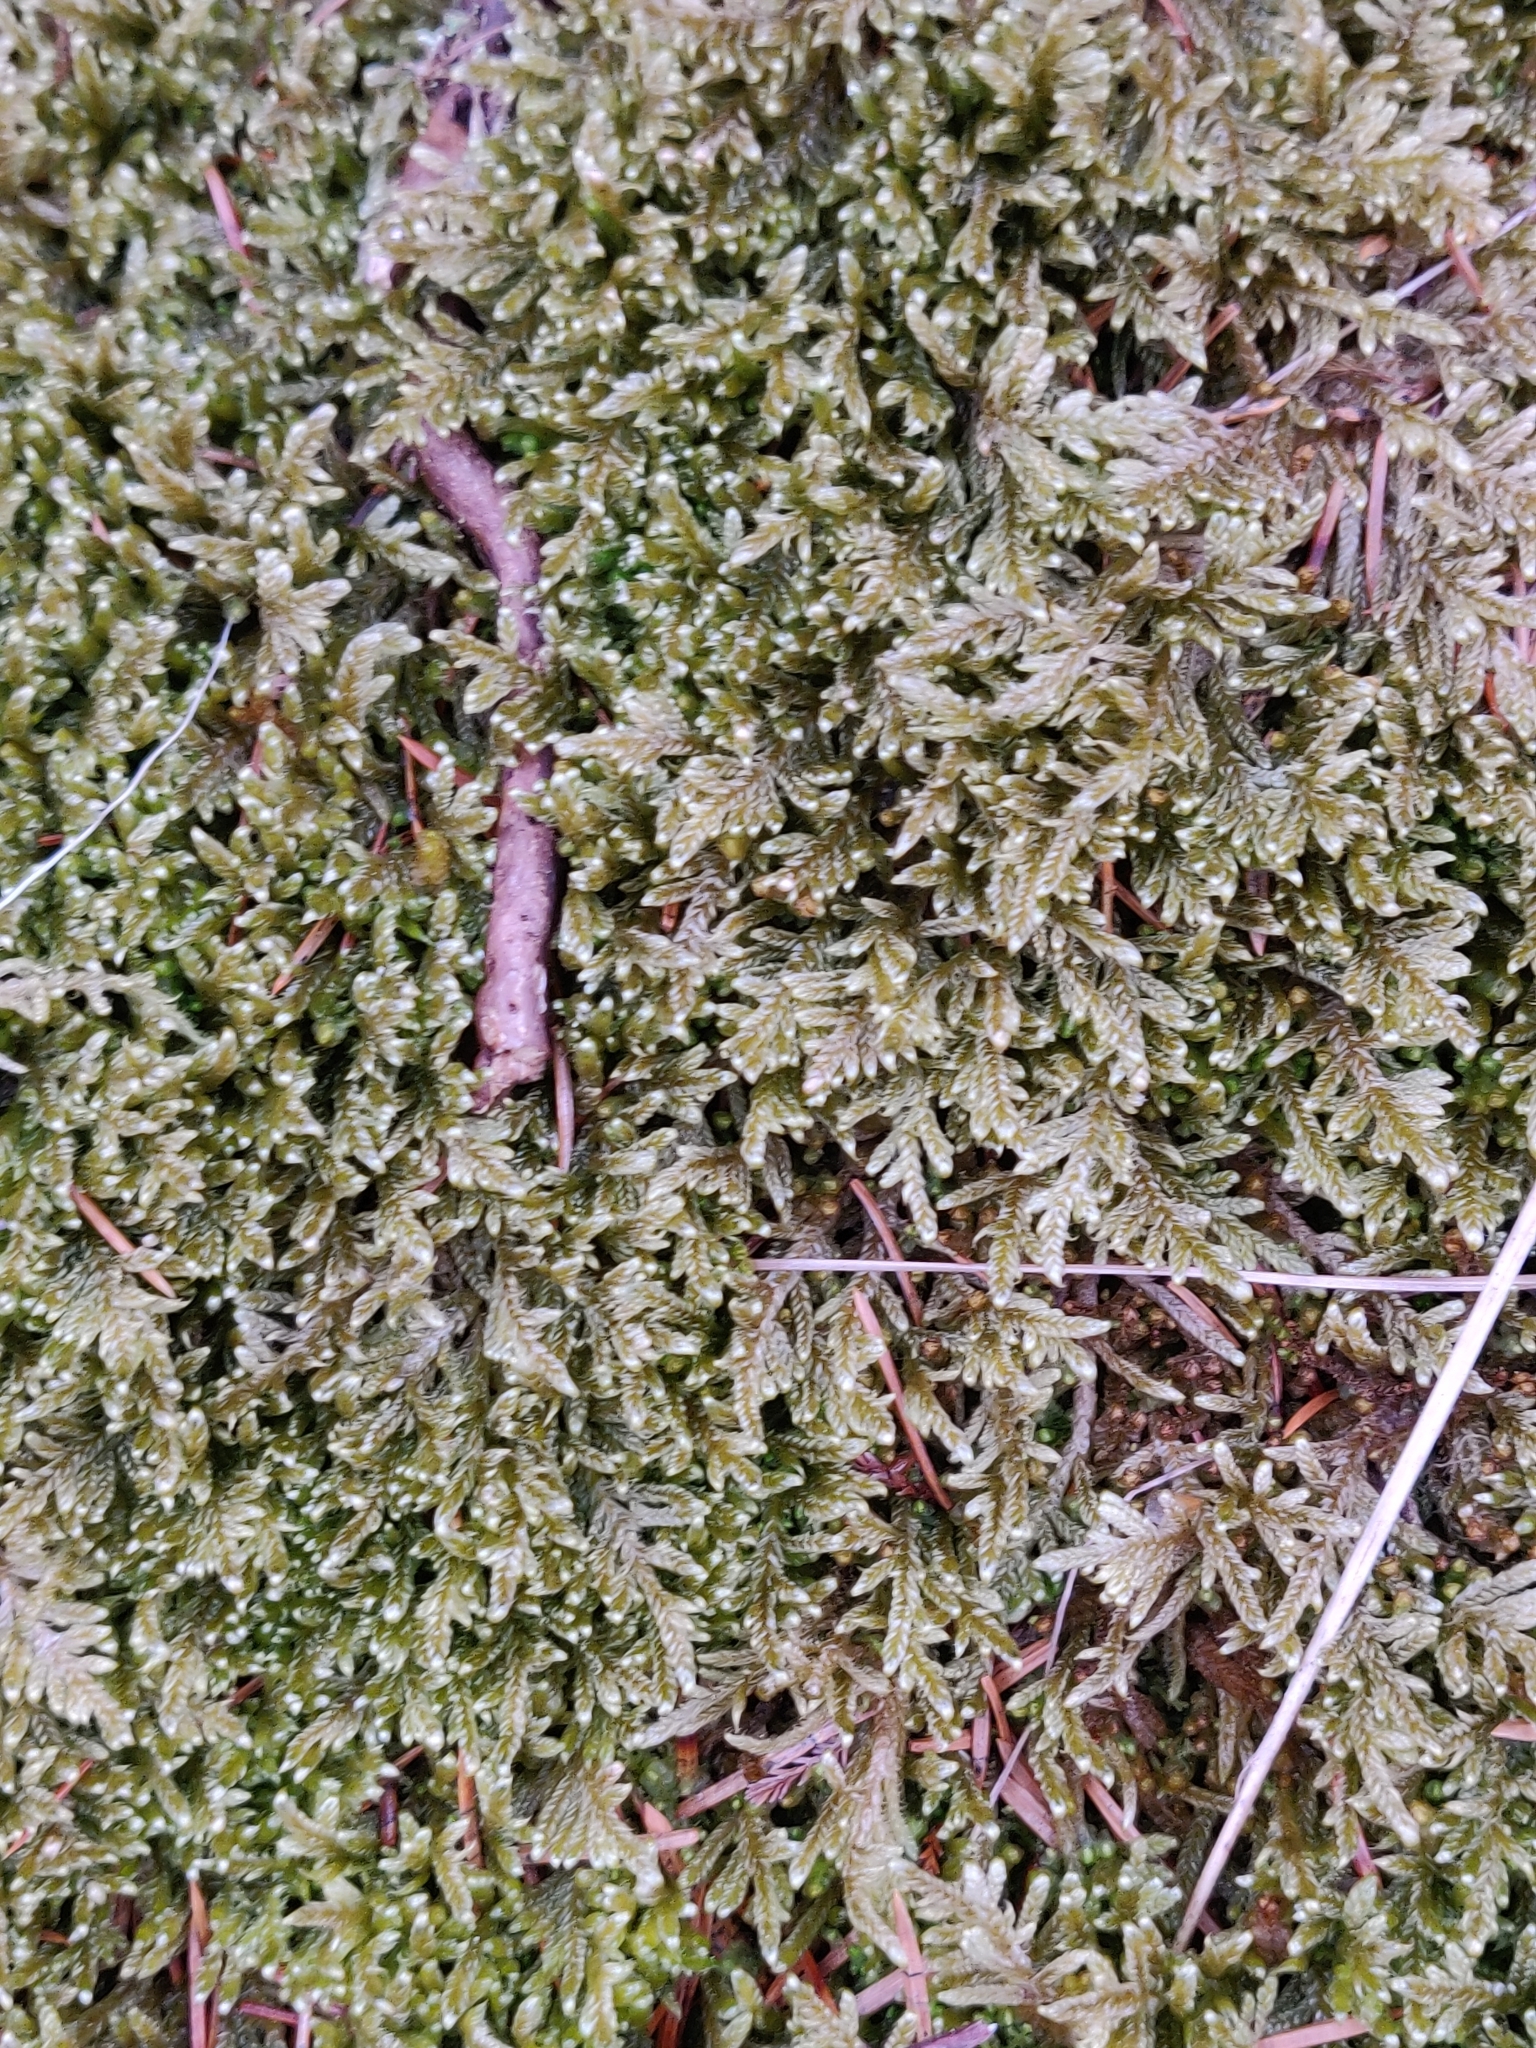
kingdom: Plantae
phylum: Bryophyta
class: Bryopsida
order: Hypnales
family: Hypnaceae
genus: Hypnum
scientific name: Hypnum jutlandicum
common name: Heath plait-moss
